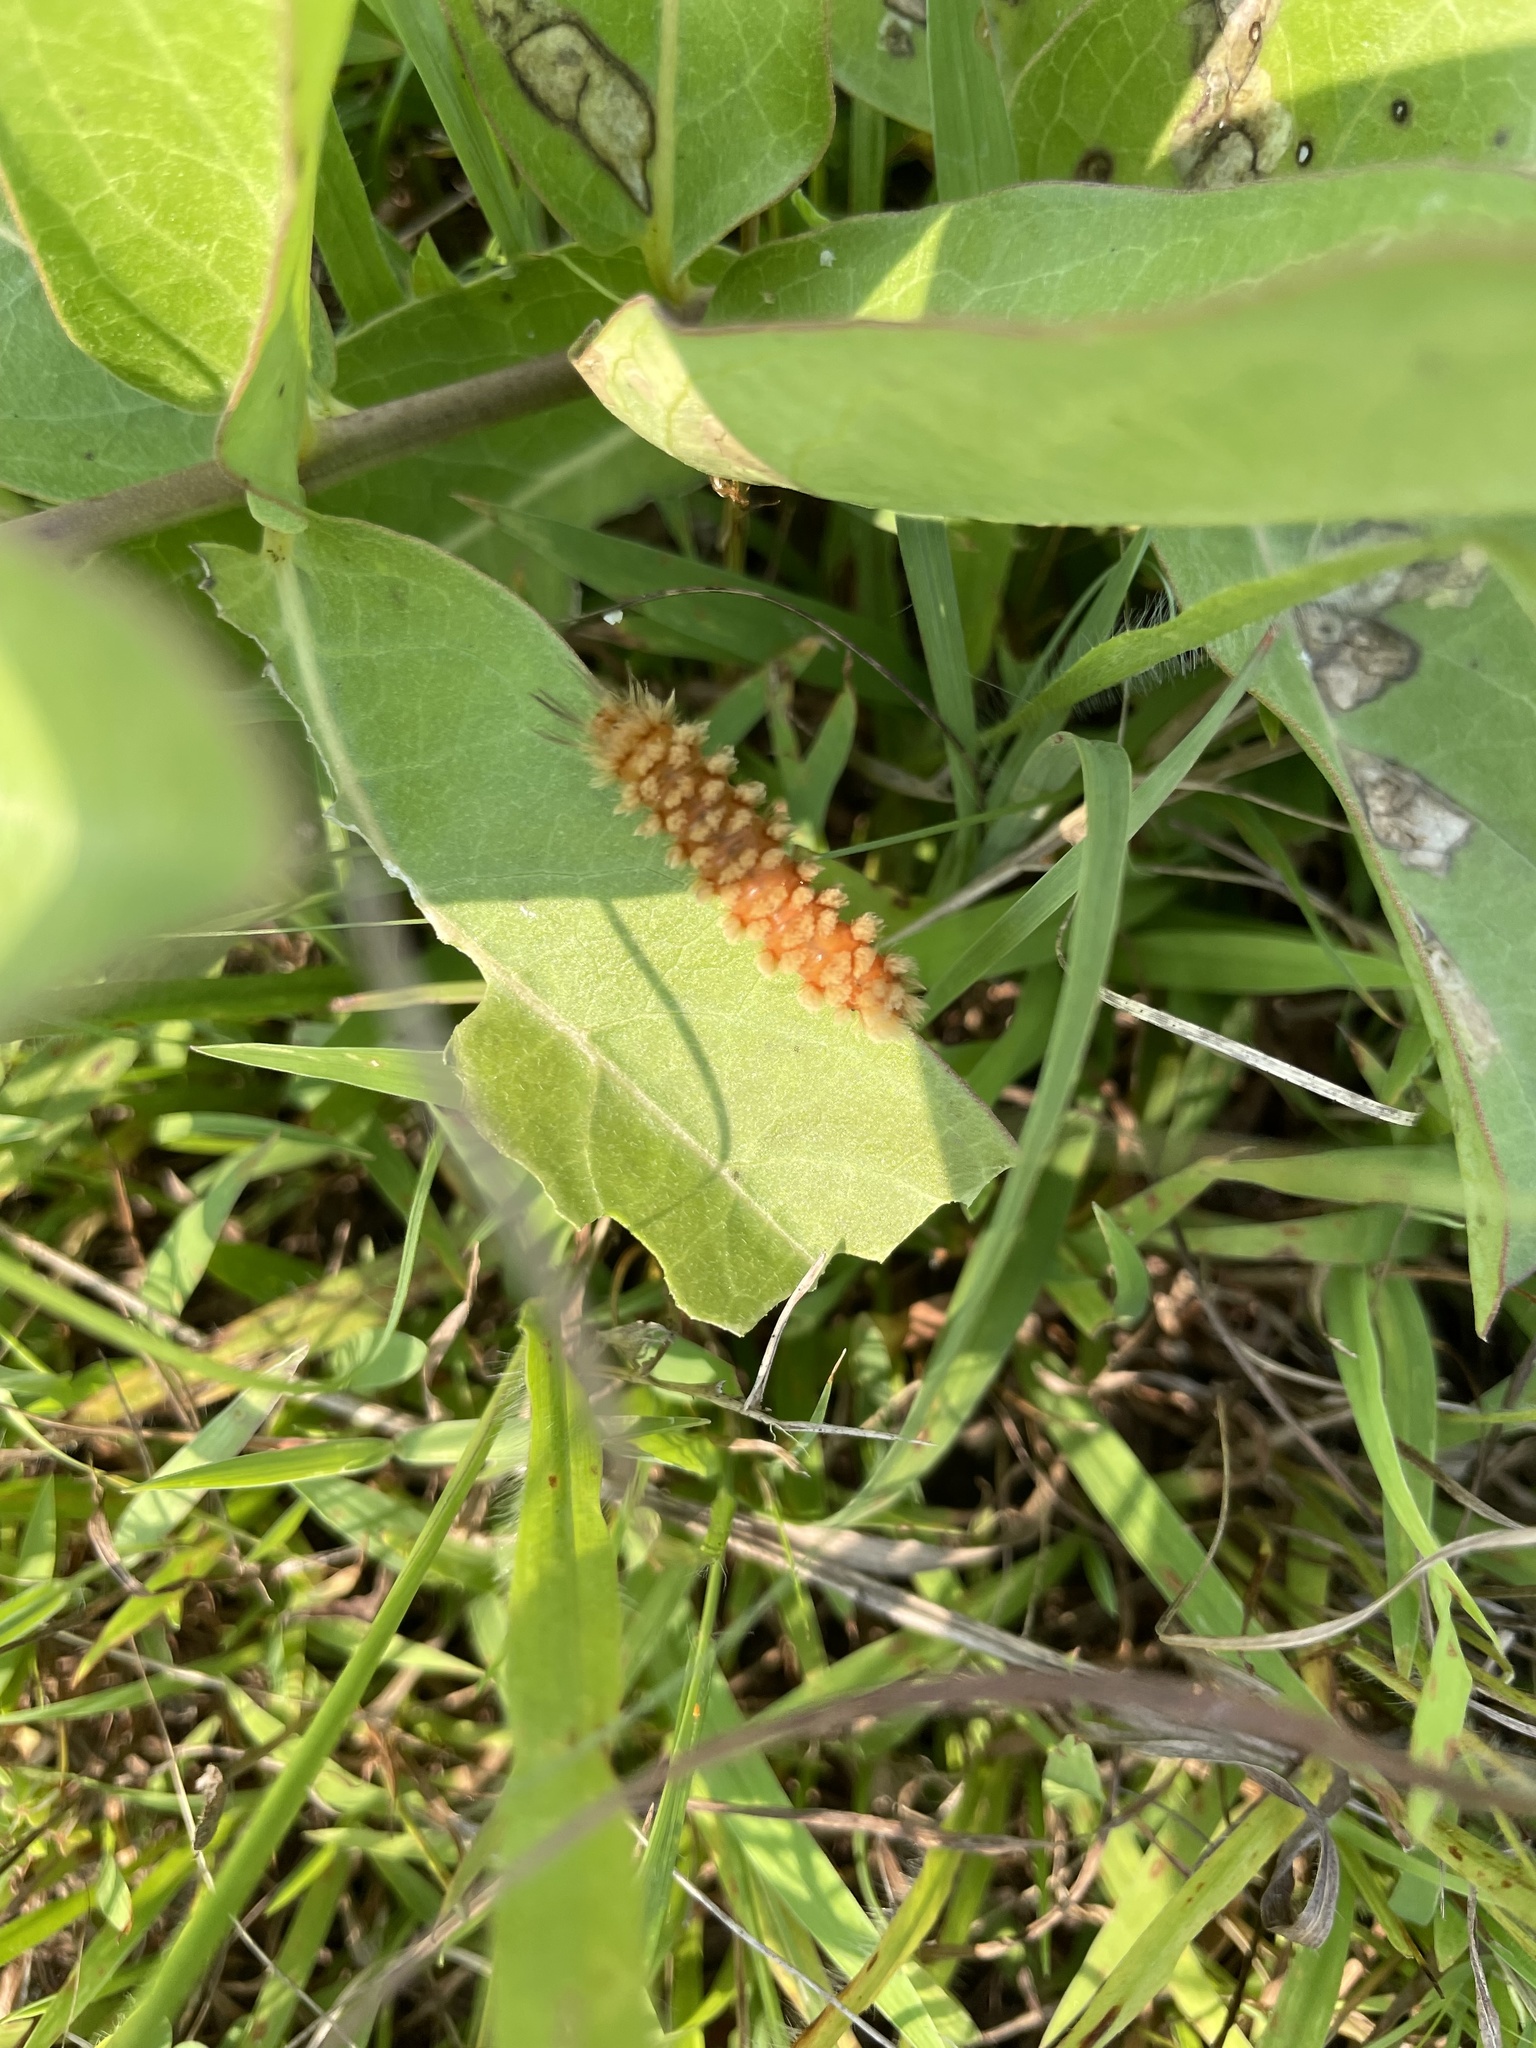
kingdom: Animalia
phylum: Arthropoda
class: Insecta
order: Lepidoptera
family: Erebidae
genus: Cycnia
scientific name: Cycnia collaris
